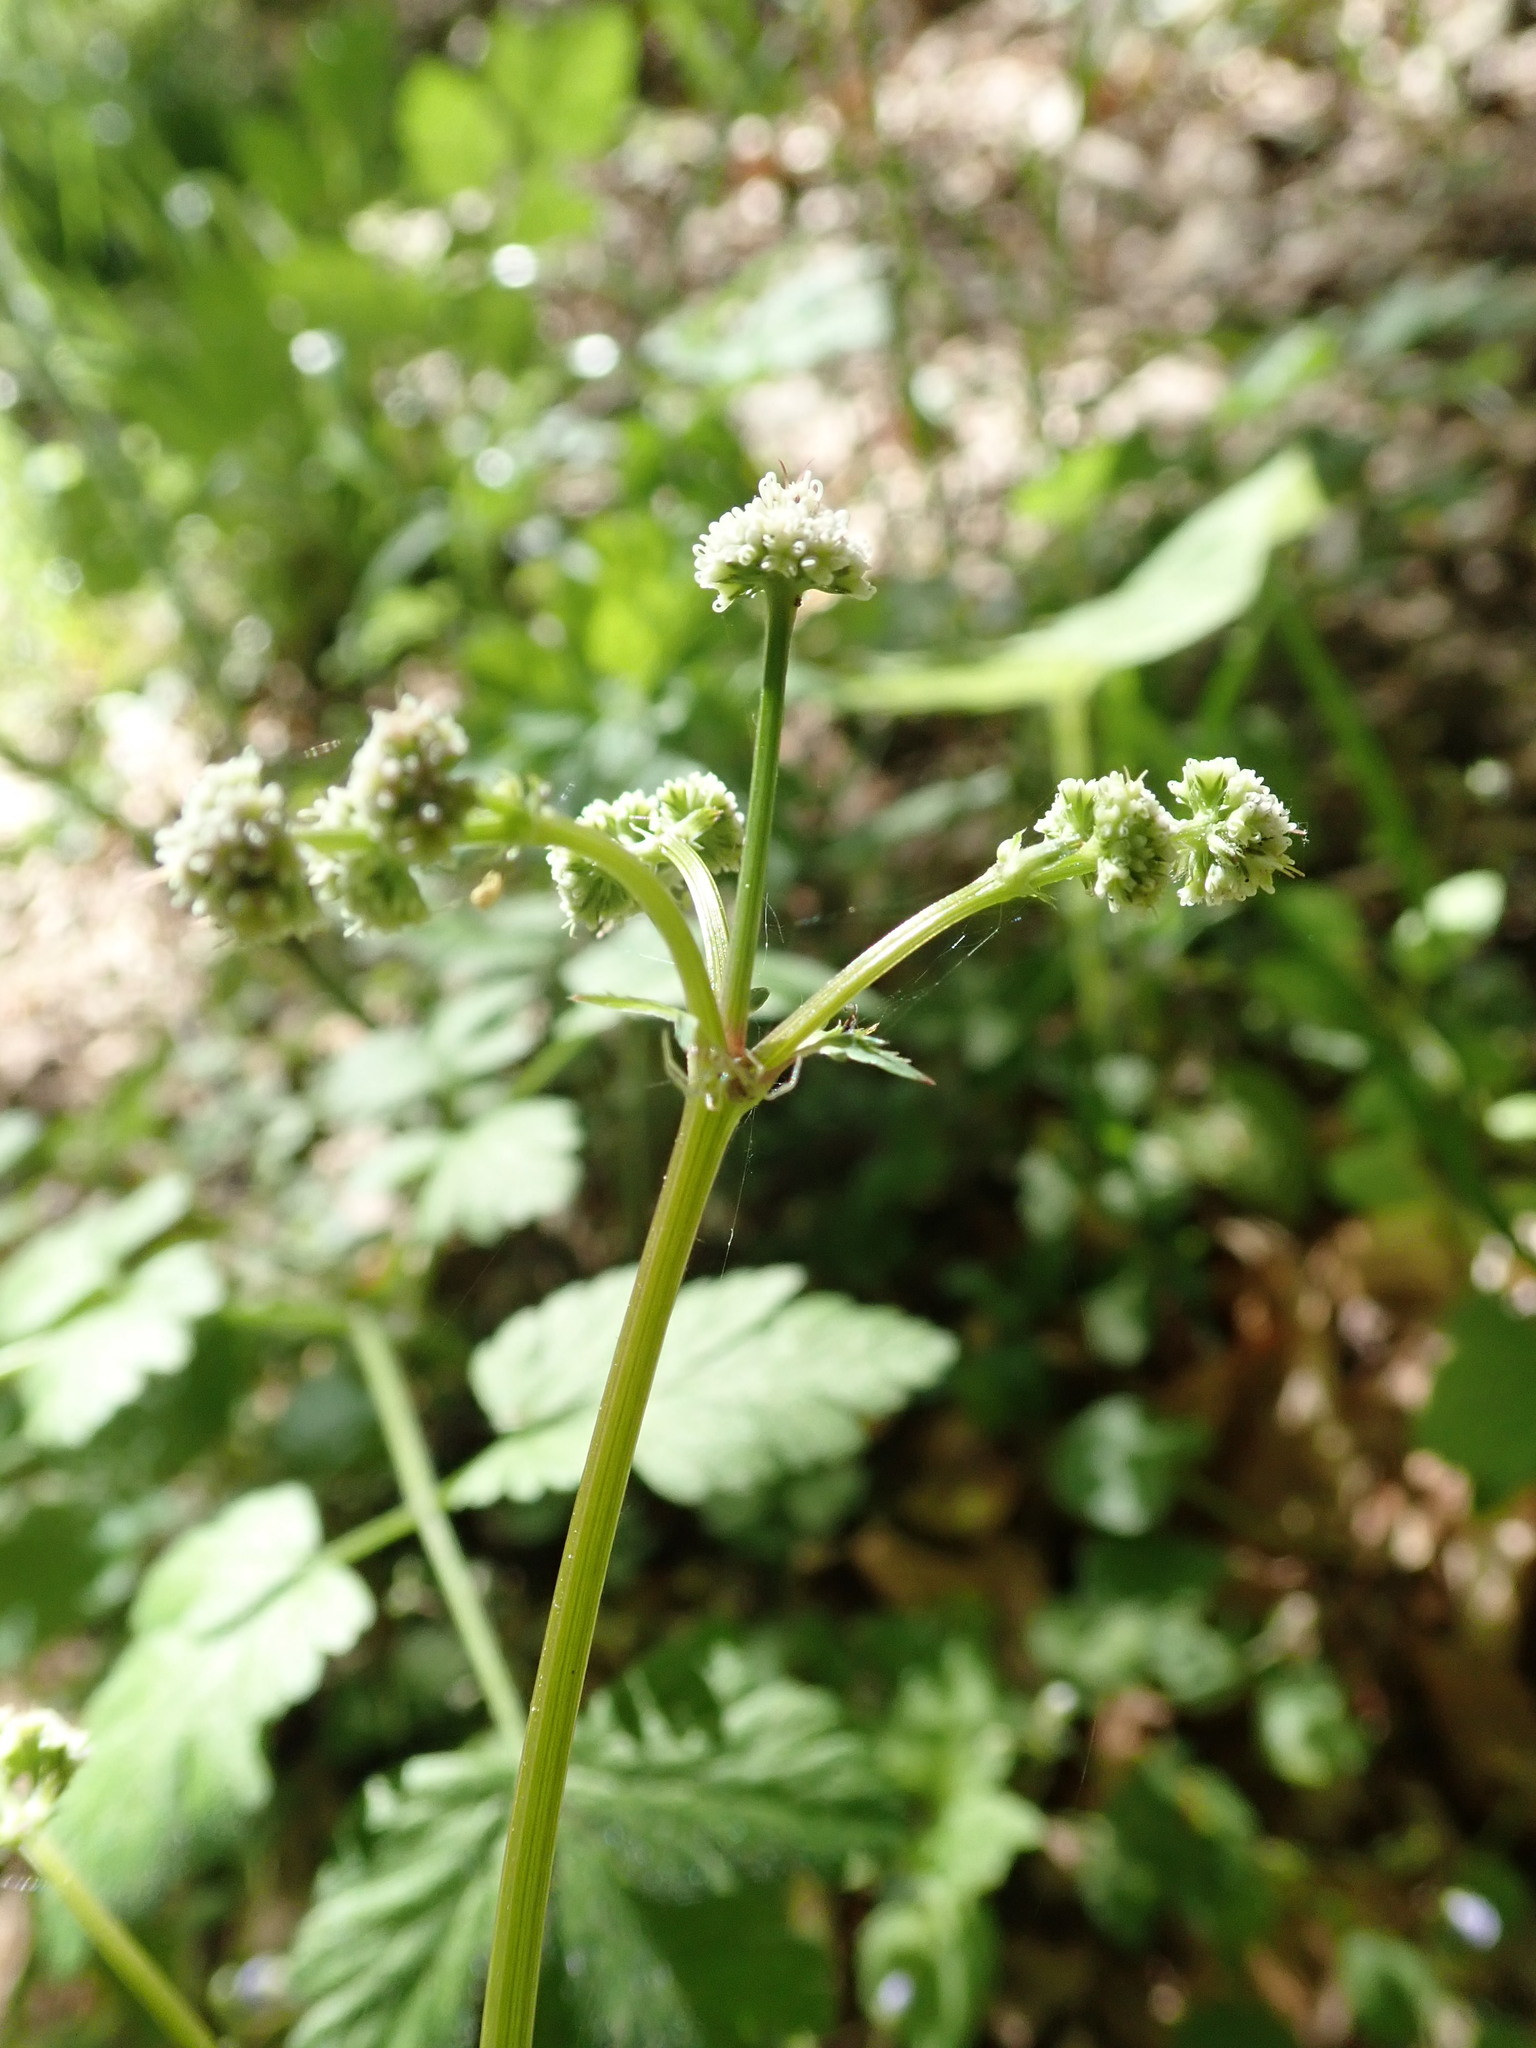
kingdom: Plantae
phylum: Tracheophyta
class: Magnoliopsida
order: Apiales
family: Apiaceae
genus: Sanicula
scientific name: Sanicula europaea
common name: Sanicle
